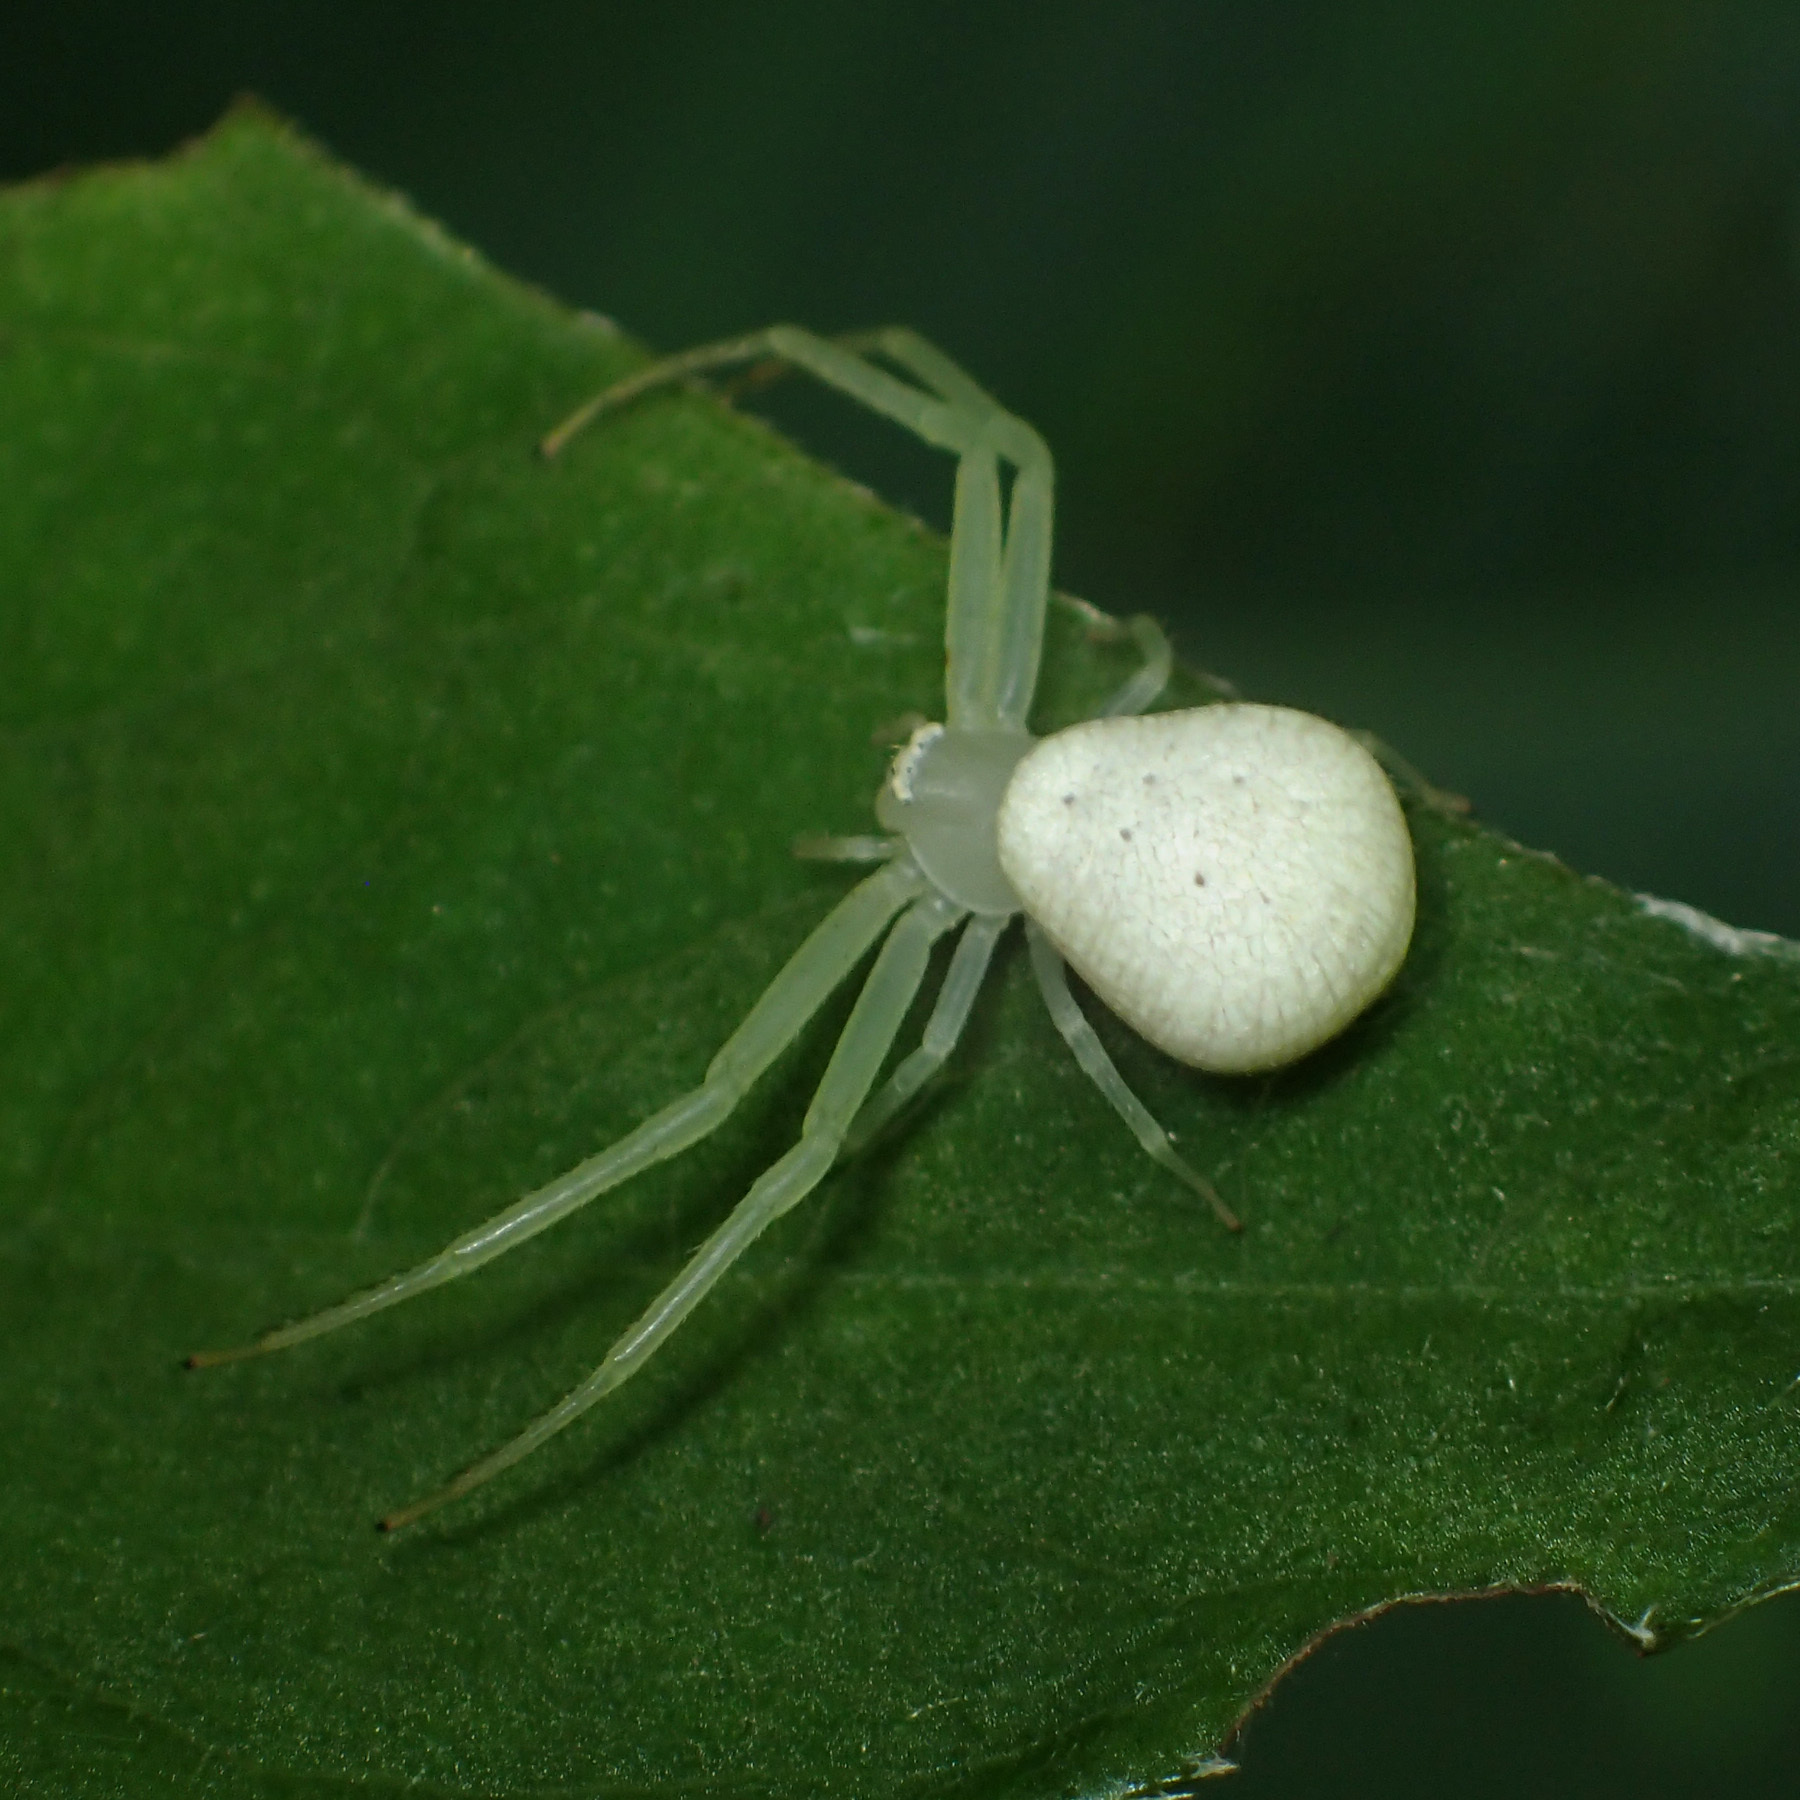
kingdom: Animalia
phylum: Arthropoda
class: Arachnida
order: Araneae
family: Thomisidae
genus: Misumessus
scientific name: Misumessus oblongus
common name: American green crab spider
